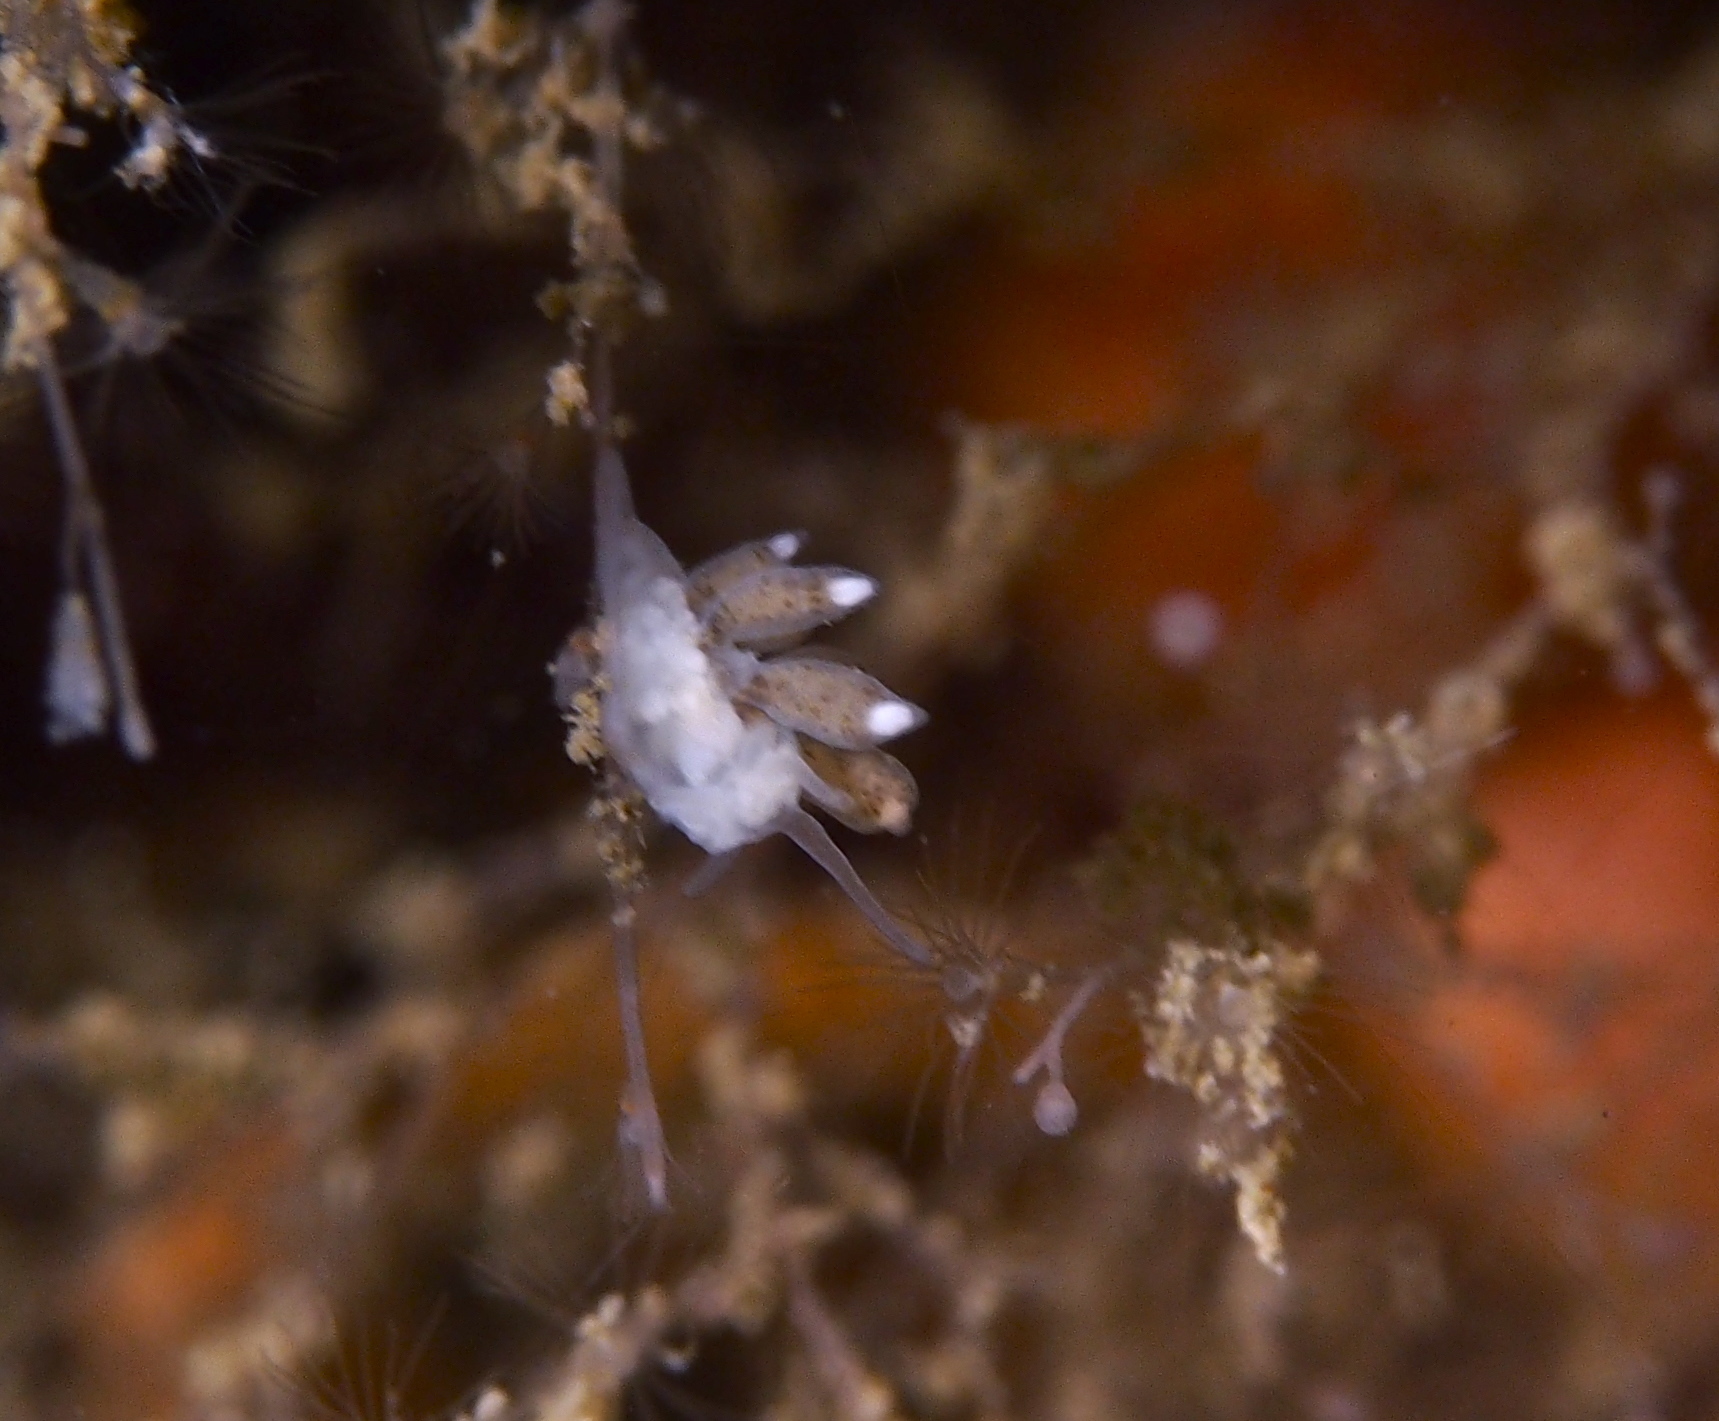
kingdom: Animalia
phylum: Mollusca
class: Gastropoda
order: Nudibranchia
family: Tergipedidae
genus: Tergipes
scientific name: Tergipes tergipes
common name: Johnston's balloon eolis
